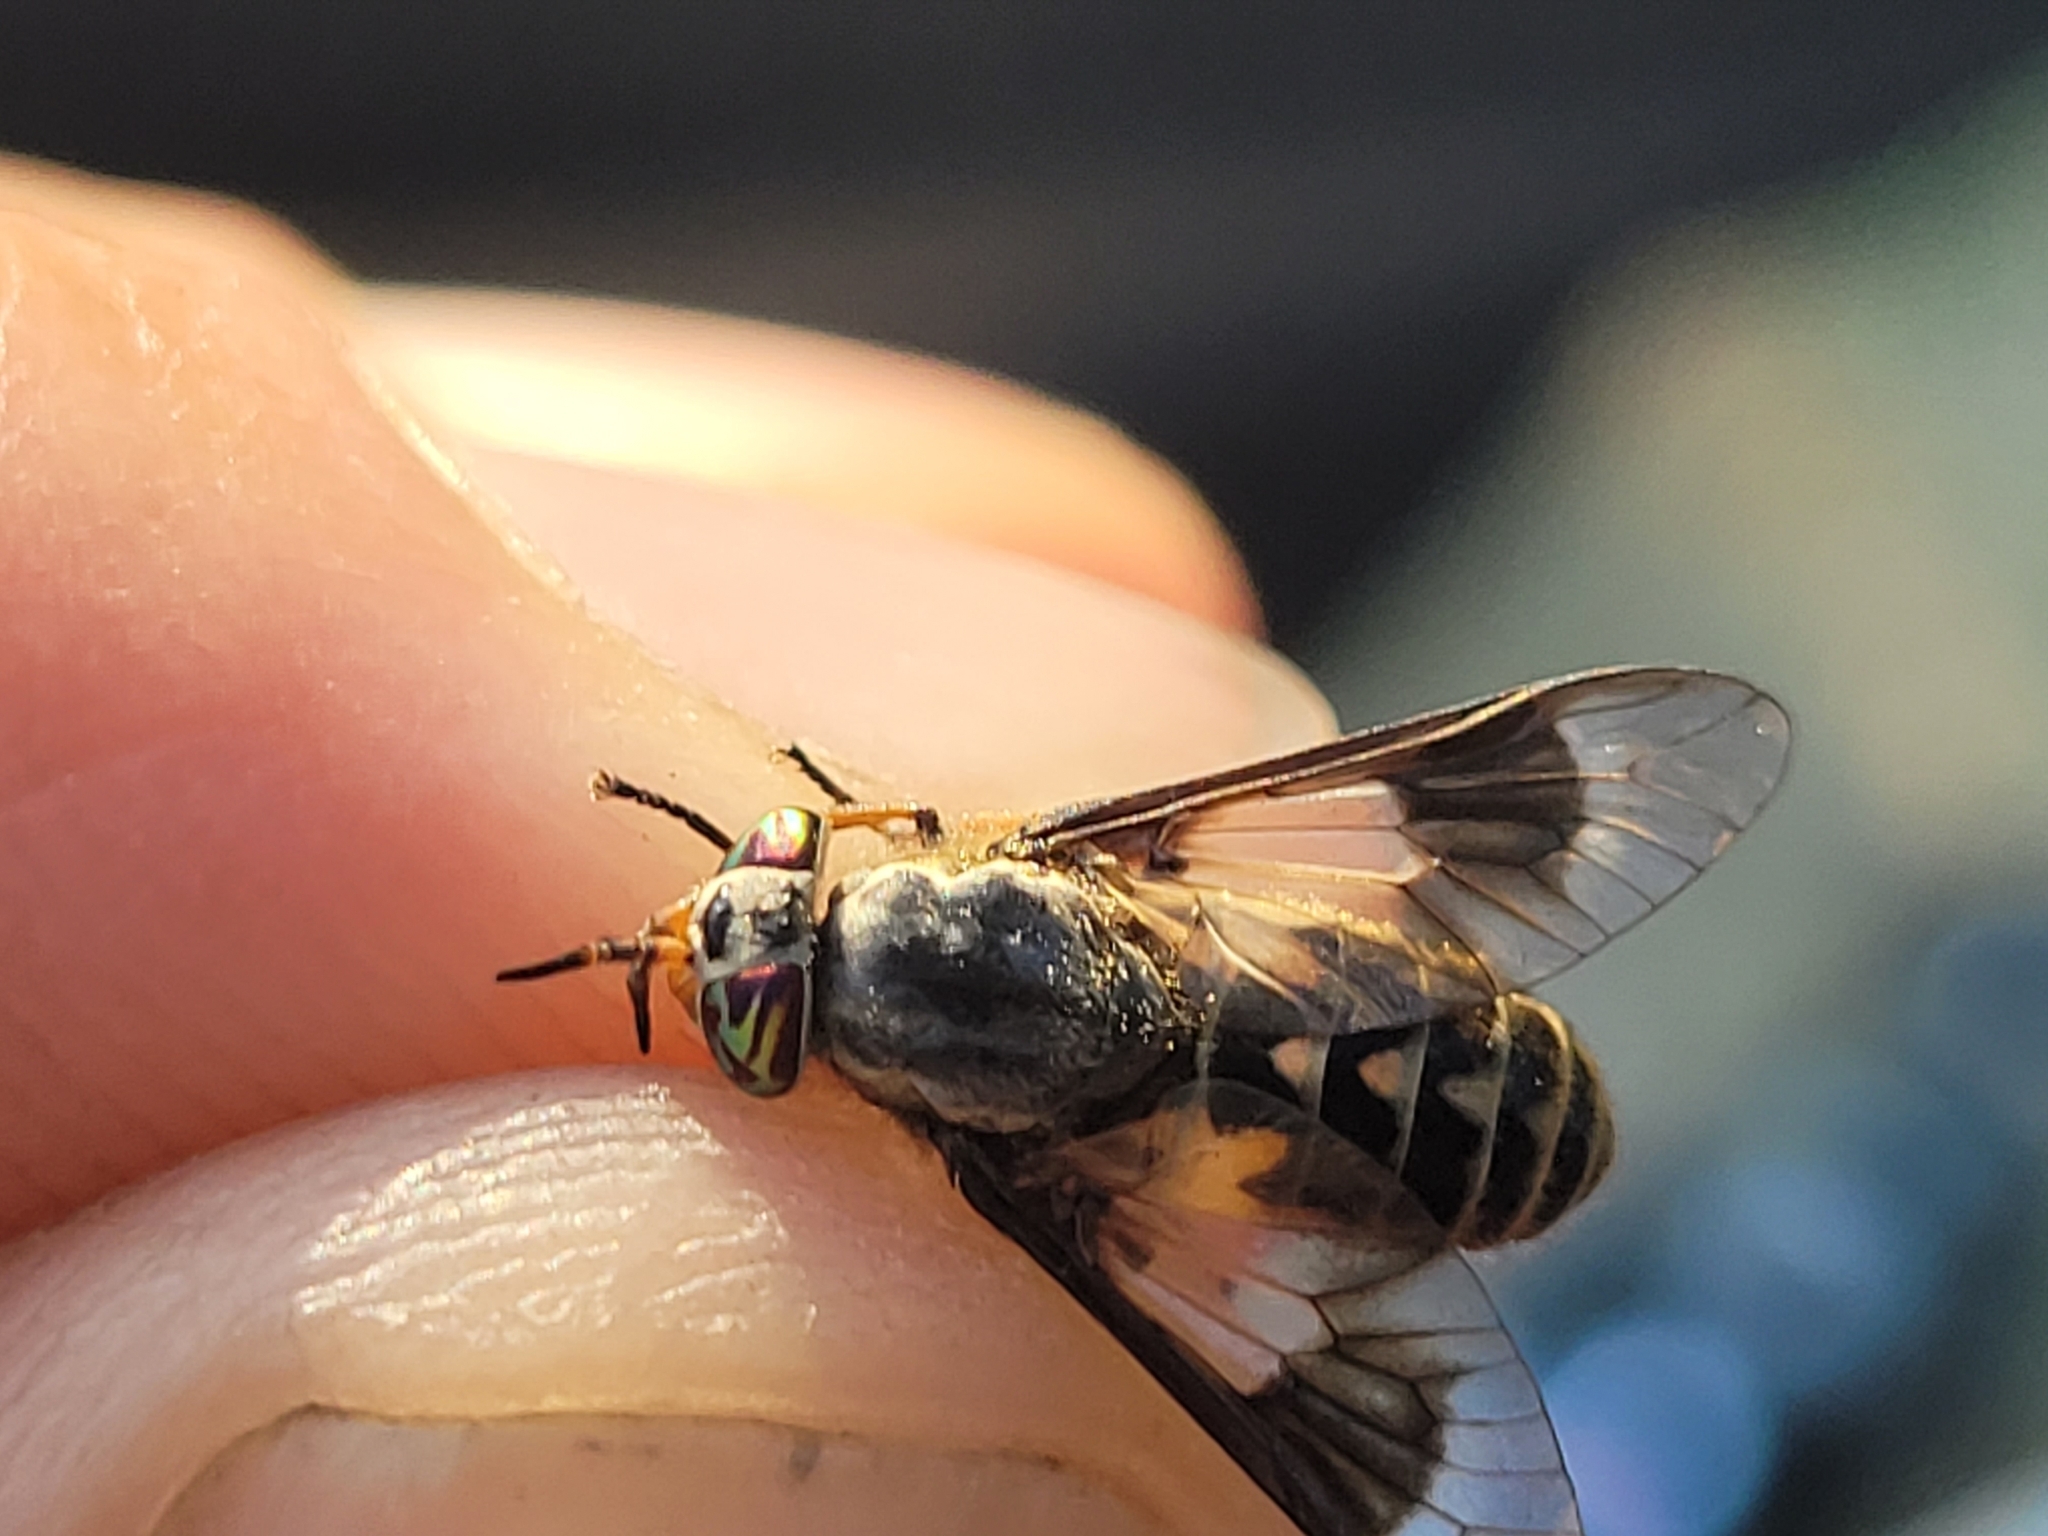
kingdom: Animalia
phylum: Arthropoda
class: Insecta
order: Diptera
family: Tabanidae
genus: Chrysops
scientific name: Chrysops aestuans
